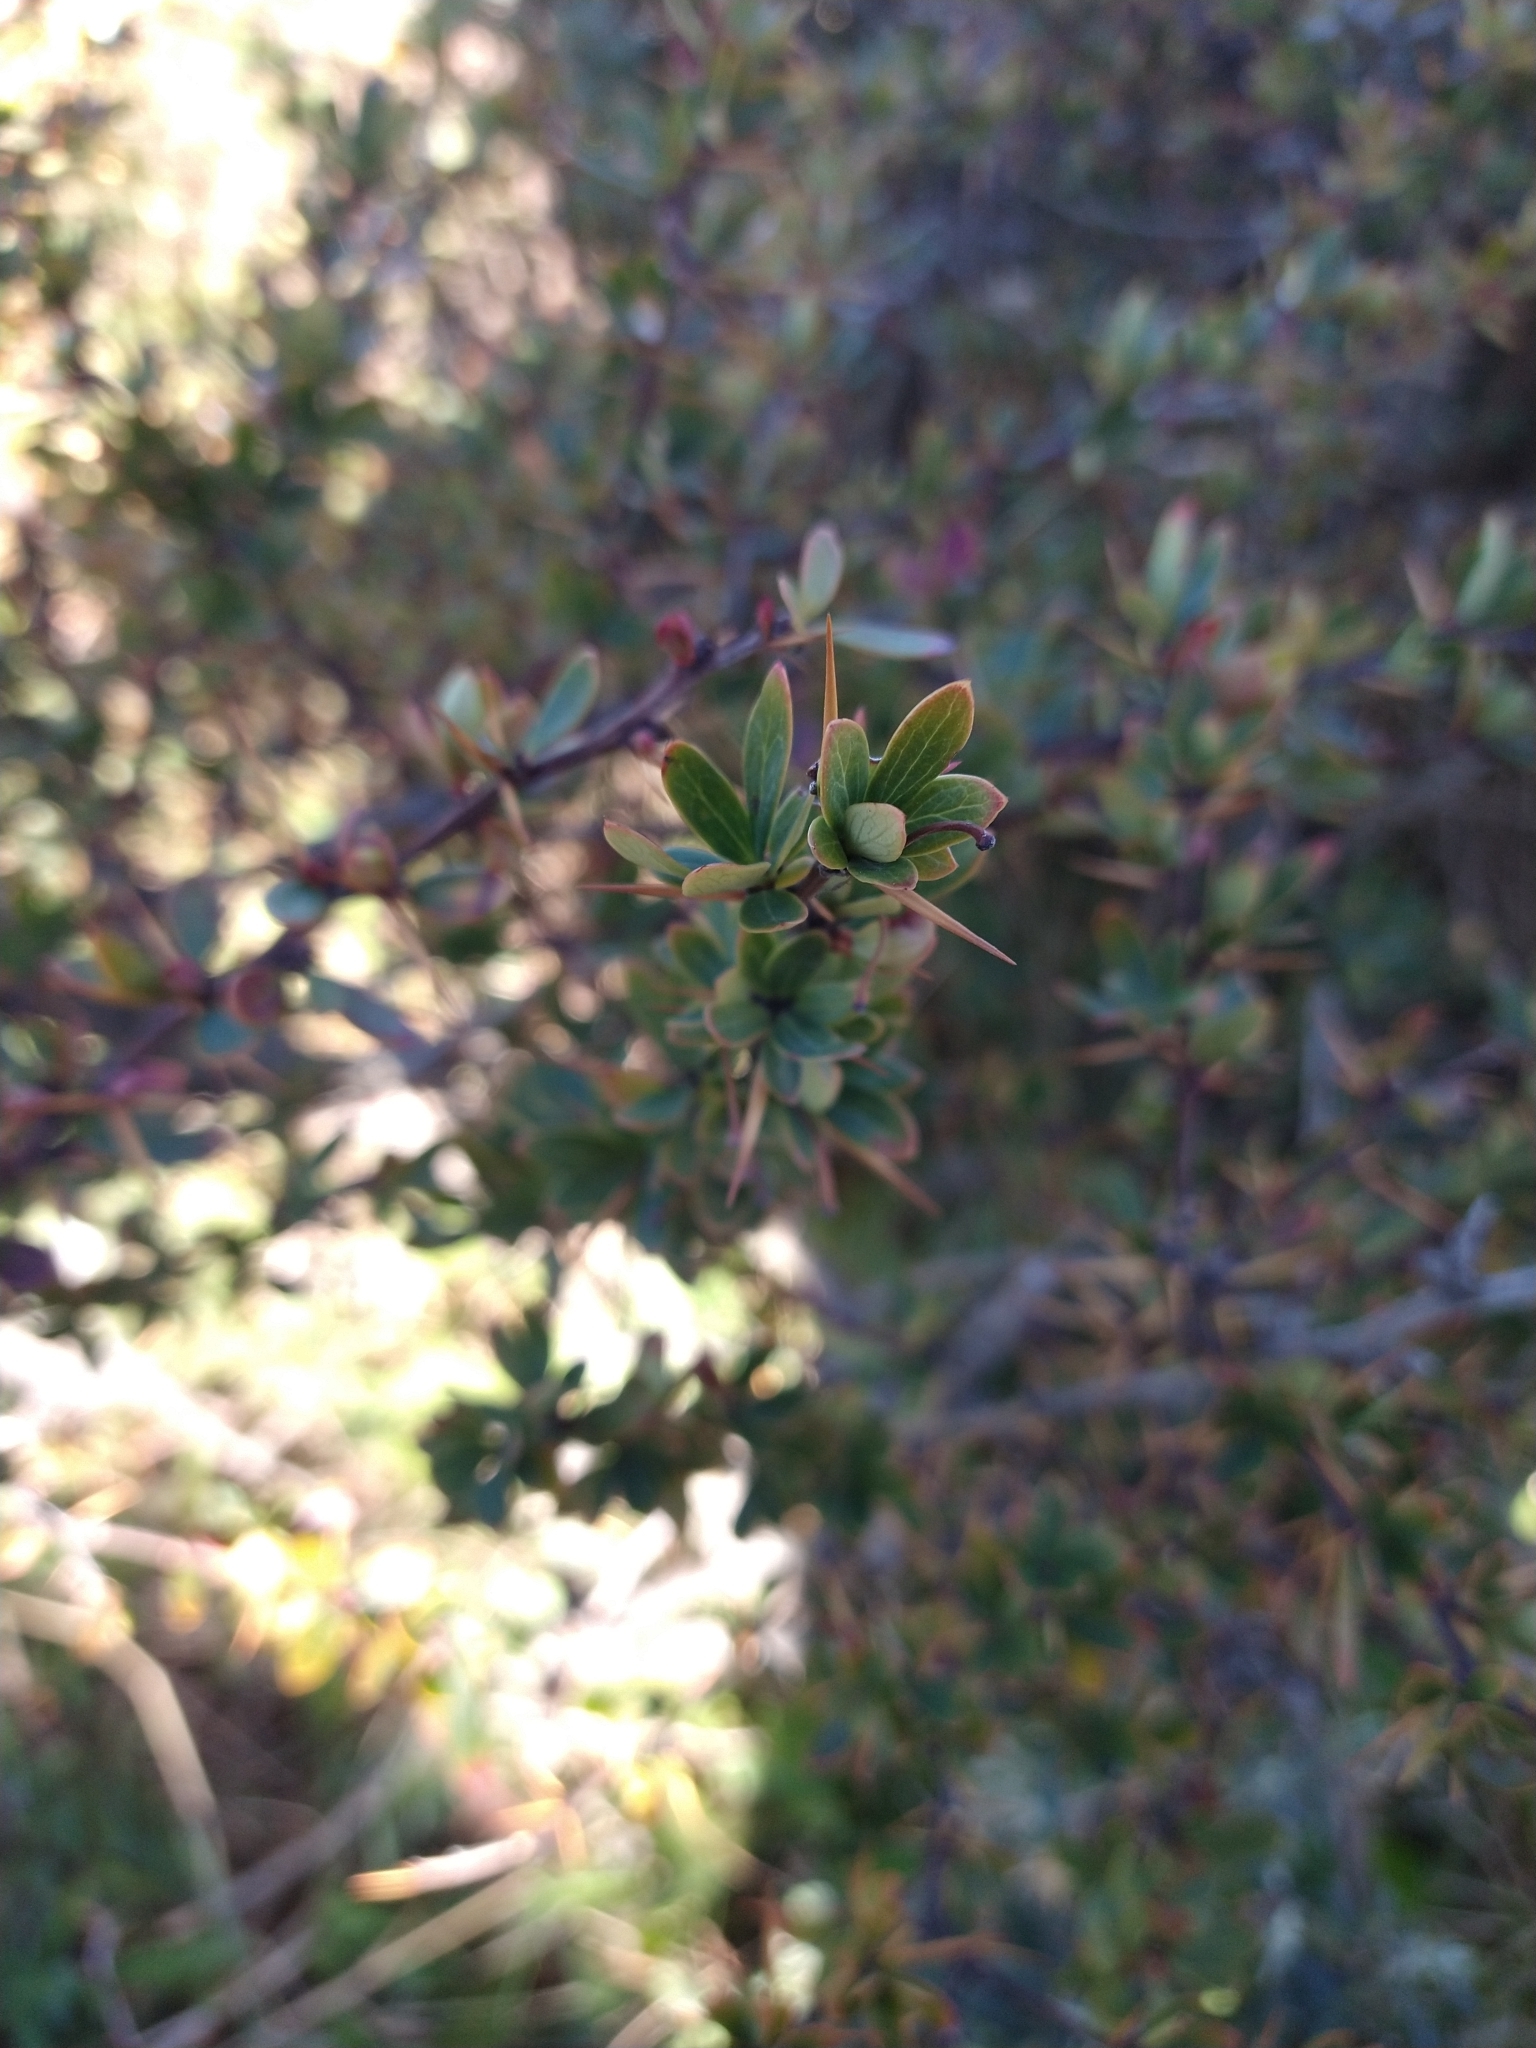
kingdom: Plantae
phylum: Tracheophyta
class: Magnoliopsida
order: Ranunculales
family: Berberidaceae
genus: Berberis
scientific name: Berberis microphylla
